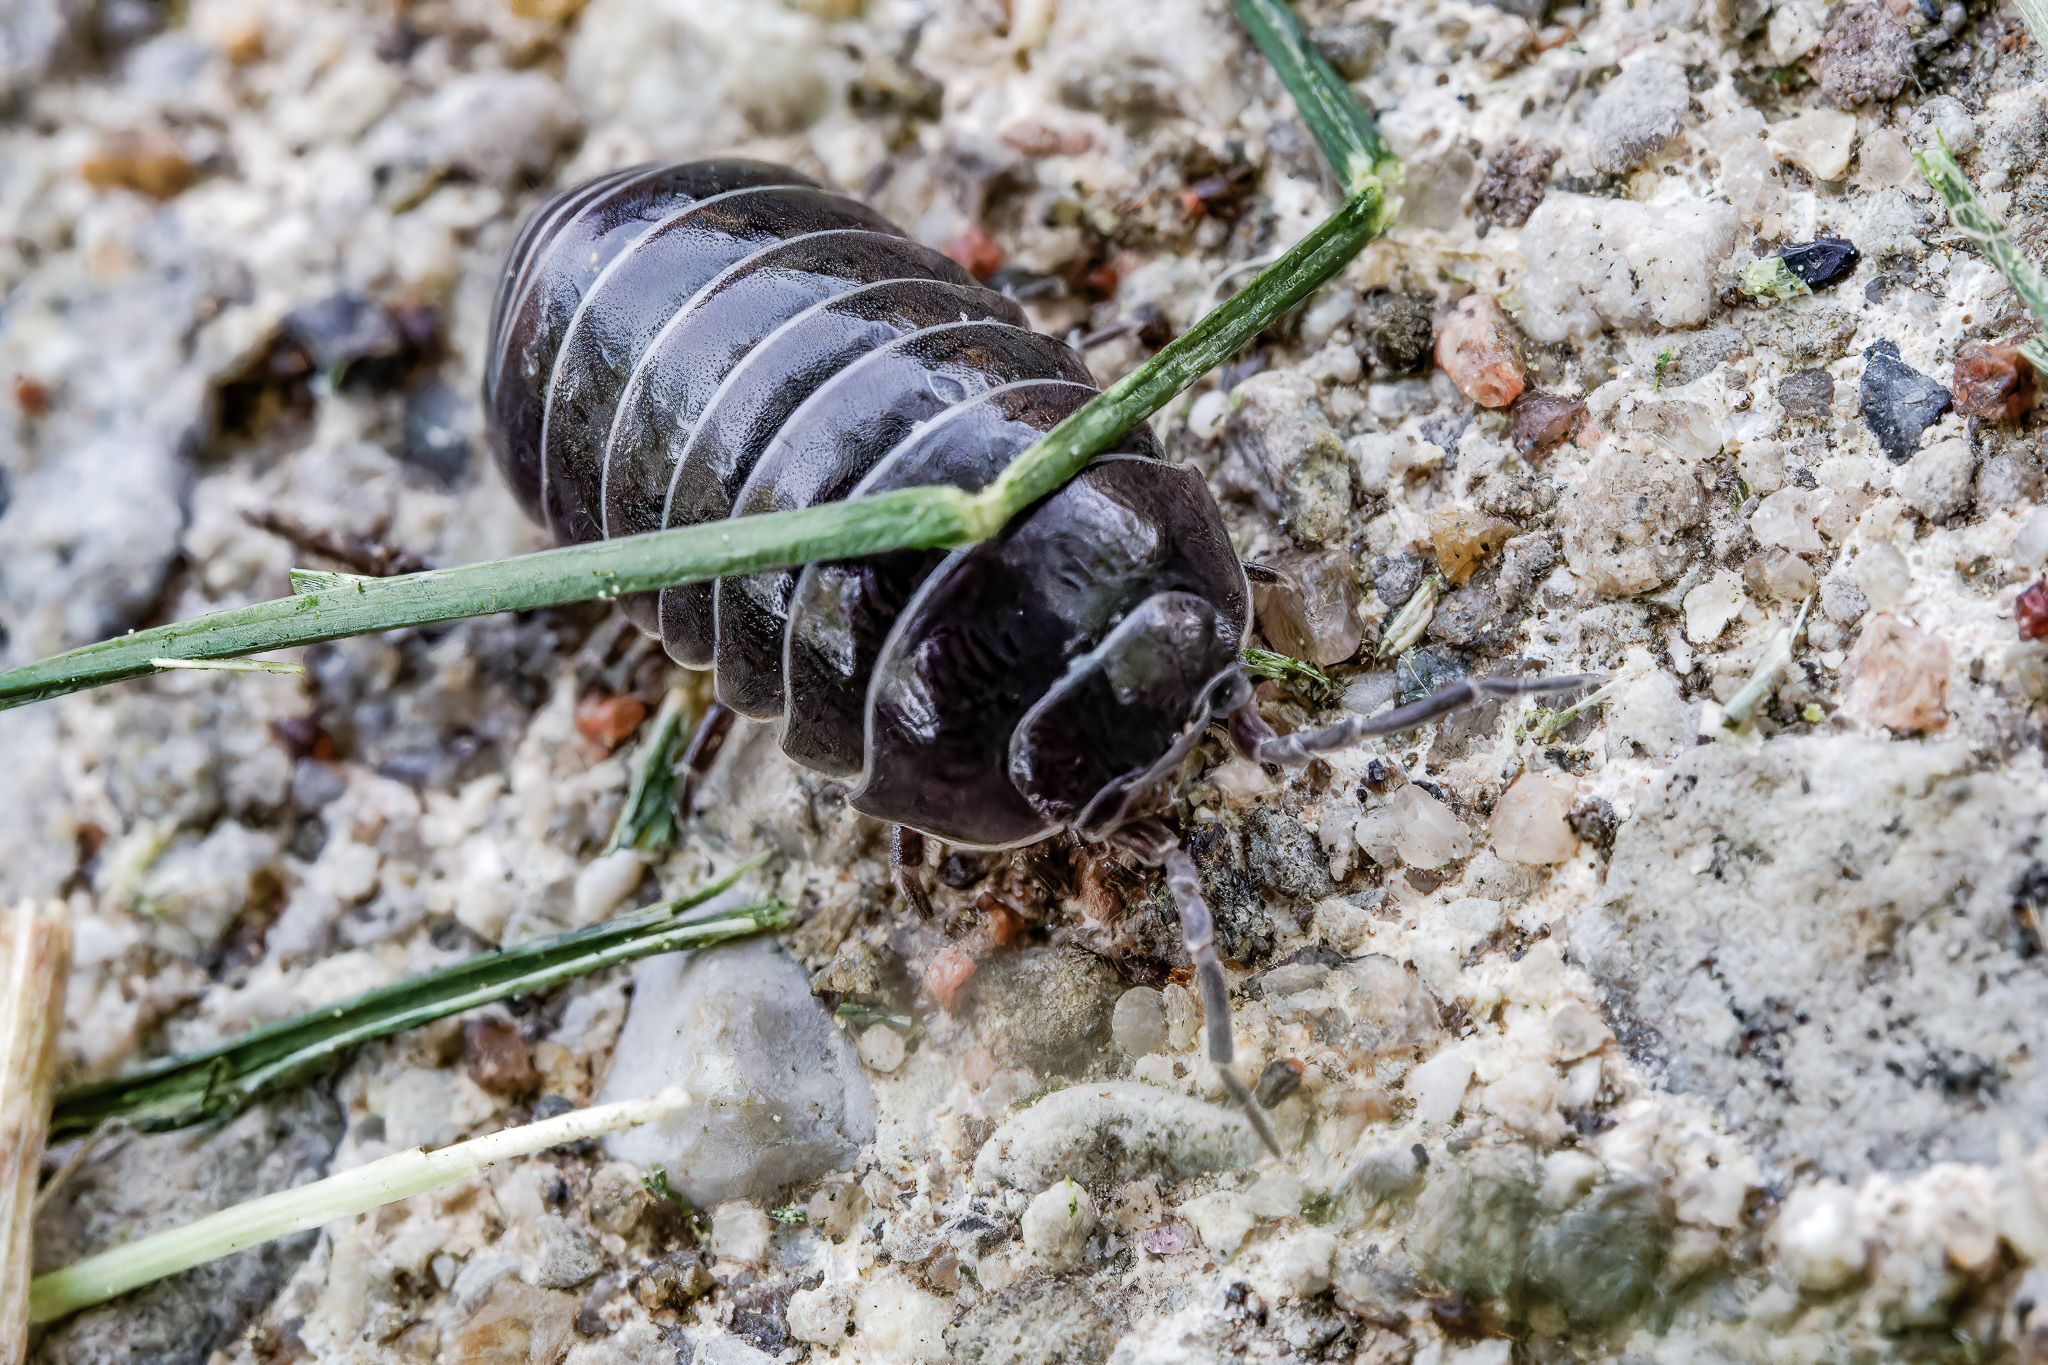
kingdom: Animalia
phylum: Arthropoda
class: Malacostraca
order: Isopoda
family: Armadillidiidae
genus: Armadillidium
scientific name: Armadillidium vulgare
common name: Common pill woodlouse
